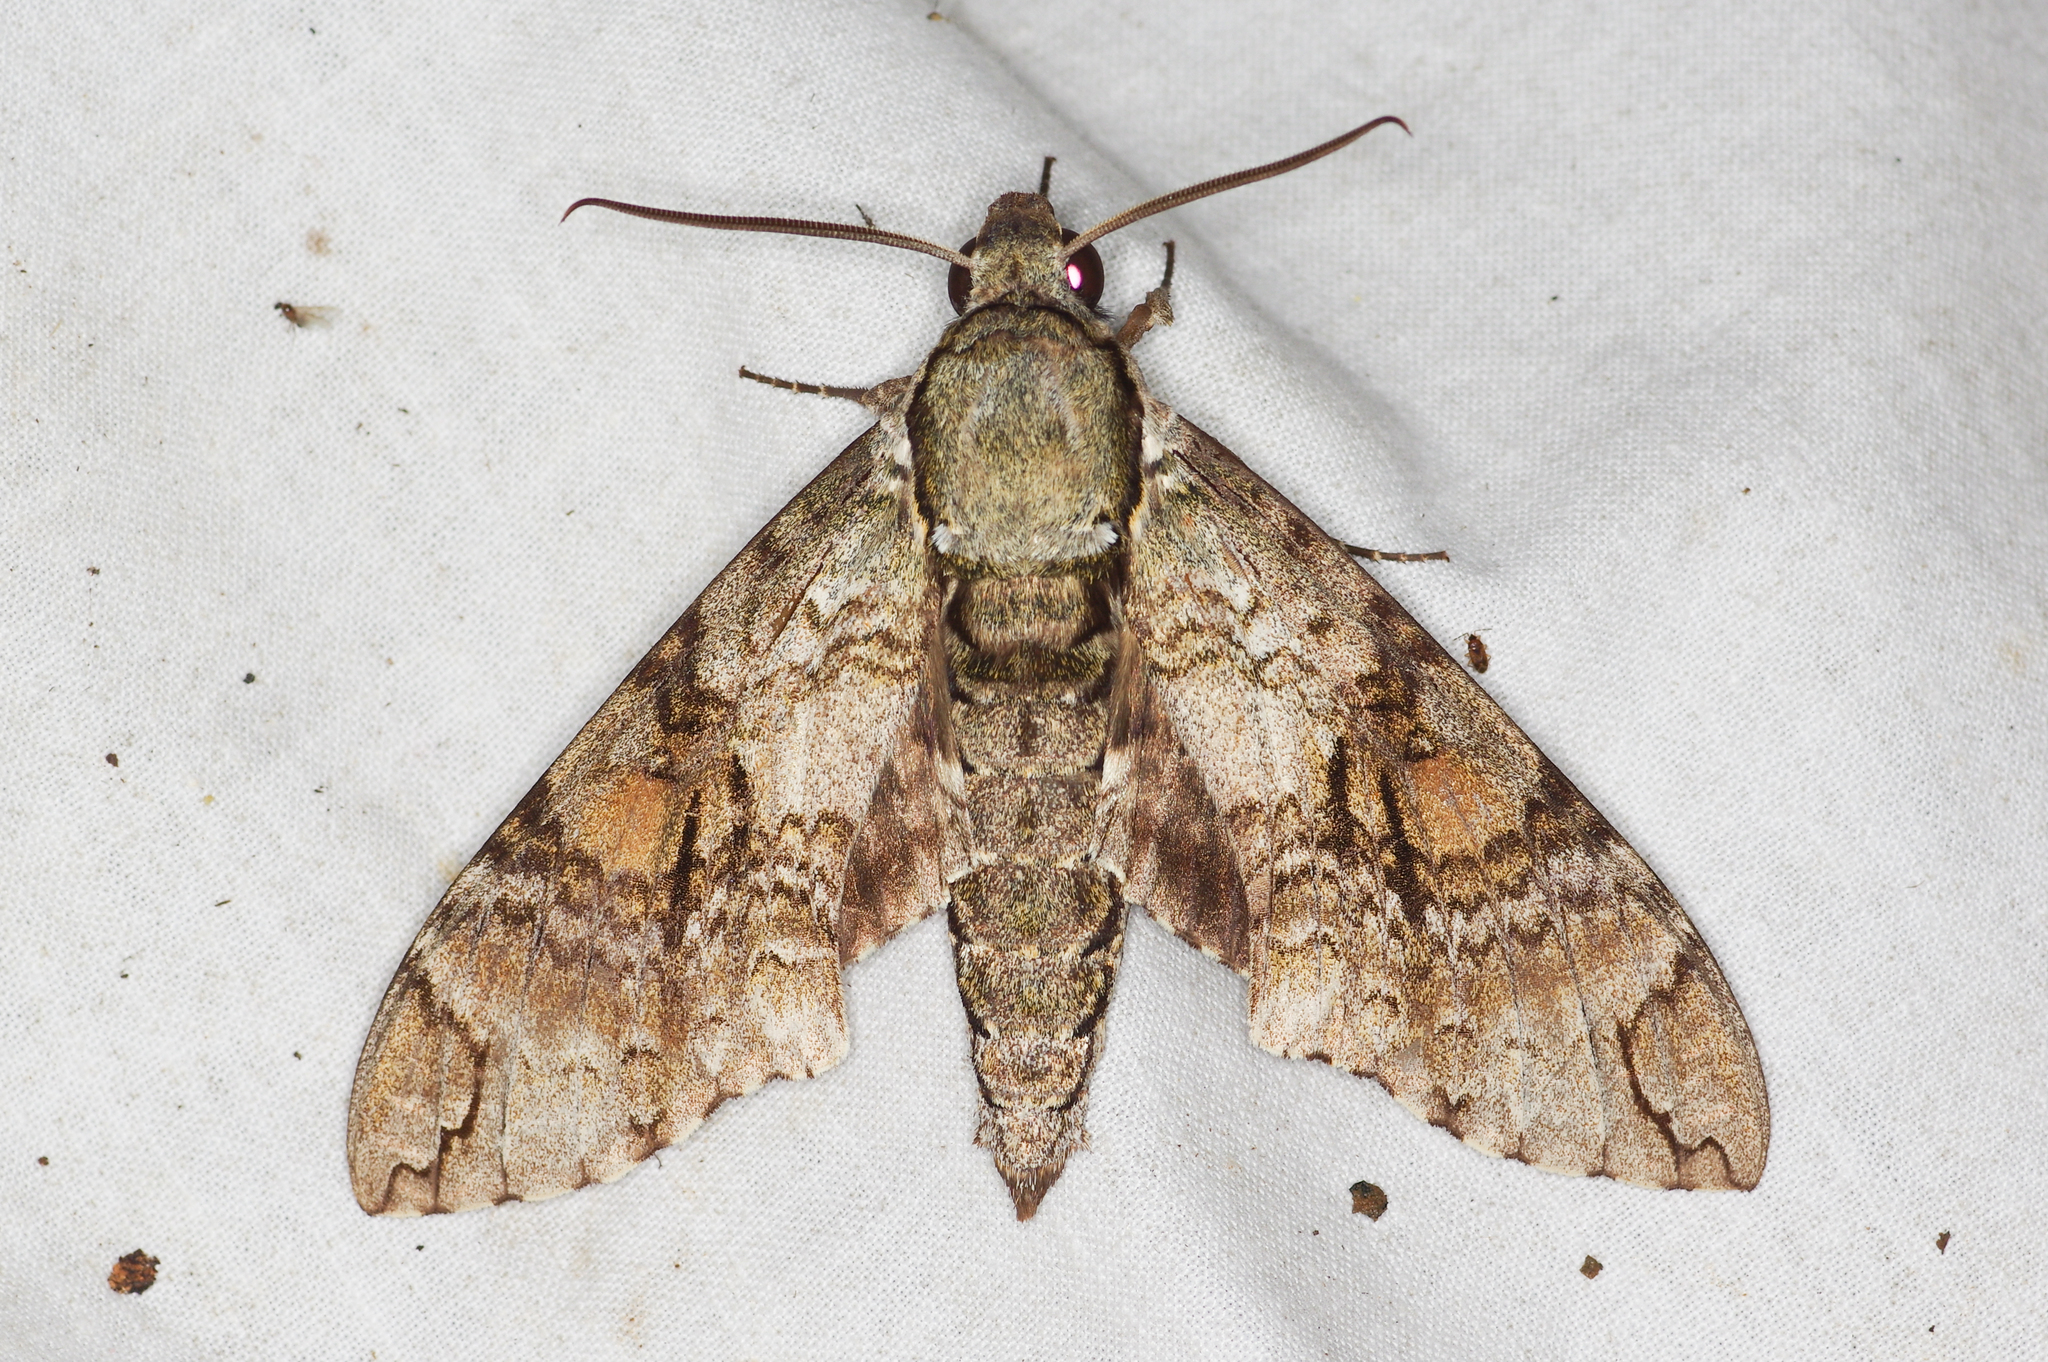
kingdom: Animalia
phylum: Arthropoda
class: Insecta
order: Lepidoptera
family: Sphingidae
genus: Manduca
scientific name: Manduca florestan
